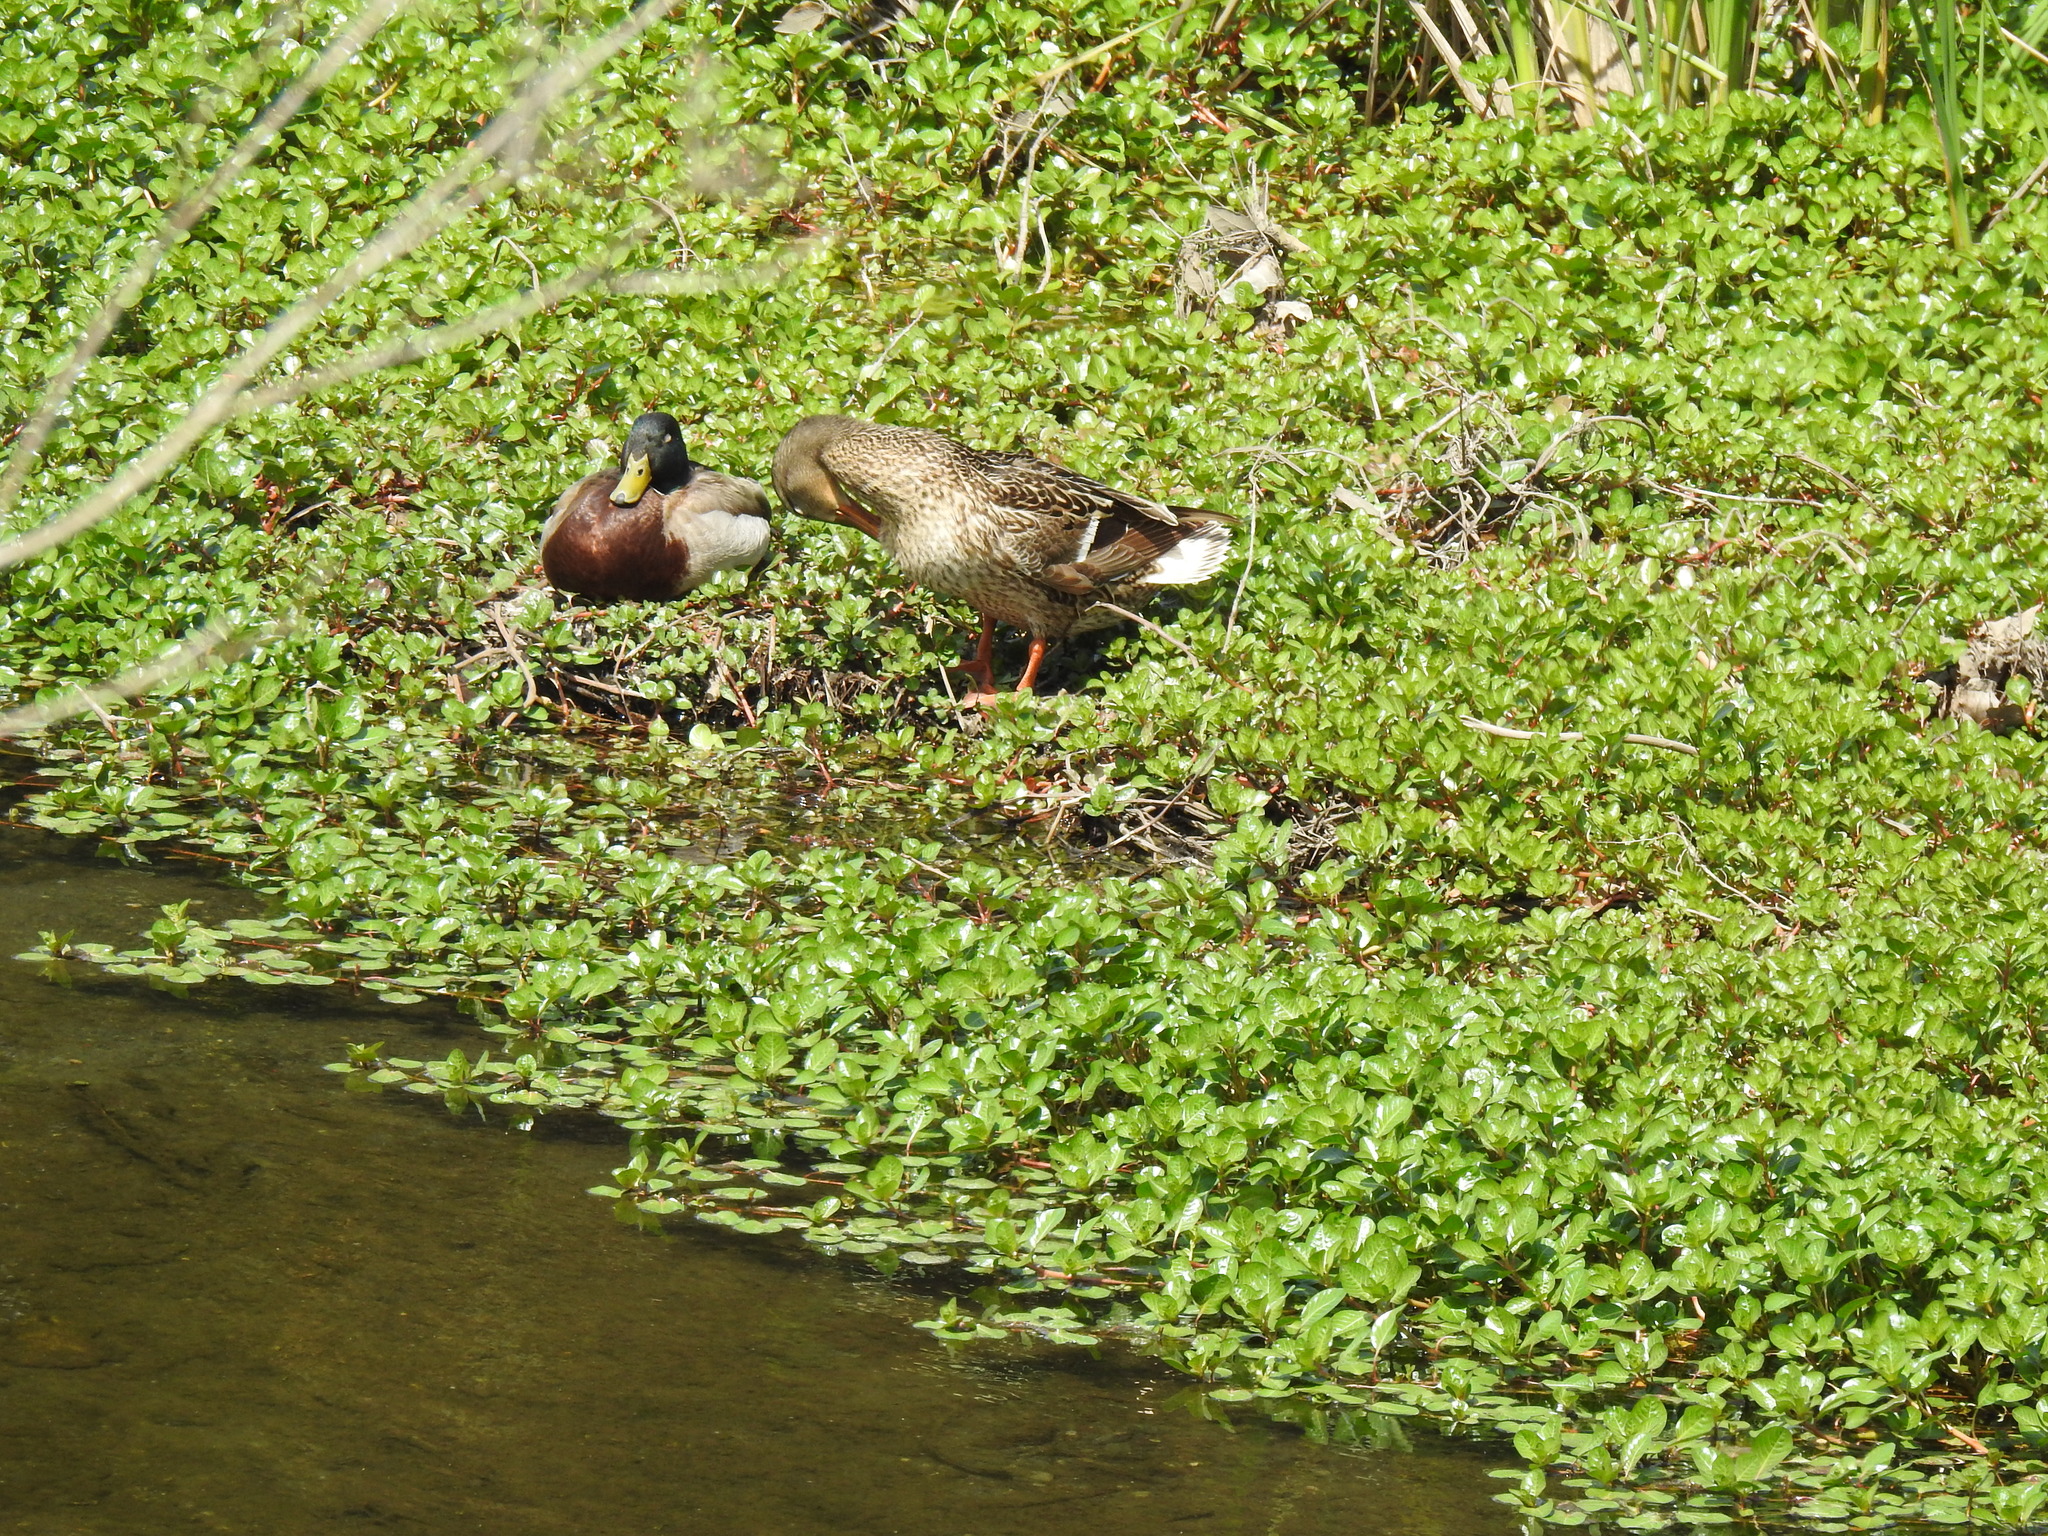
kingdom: Animalia
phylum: Chordata
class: Aves
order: Anseriformes
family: Anatidae
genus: Anas
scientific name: Anas platyrhynchos
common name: Mallard
